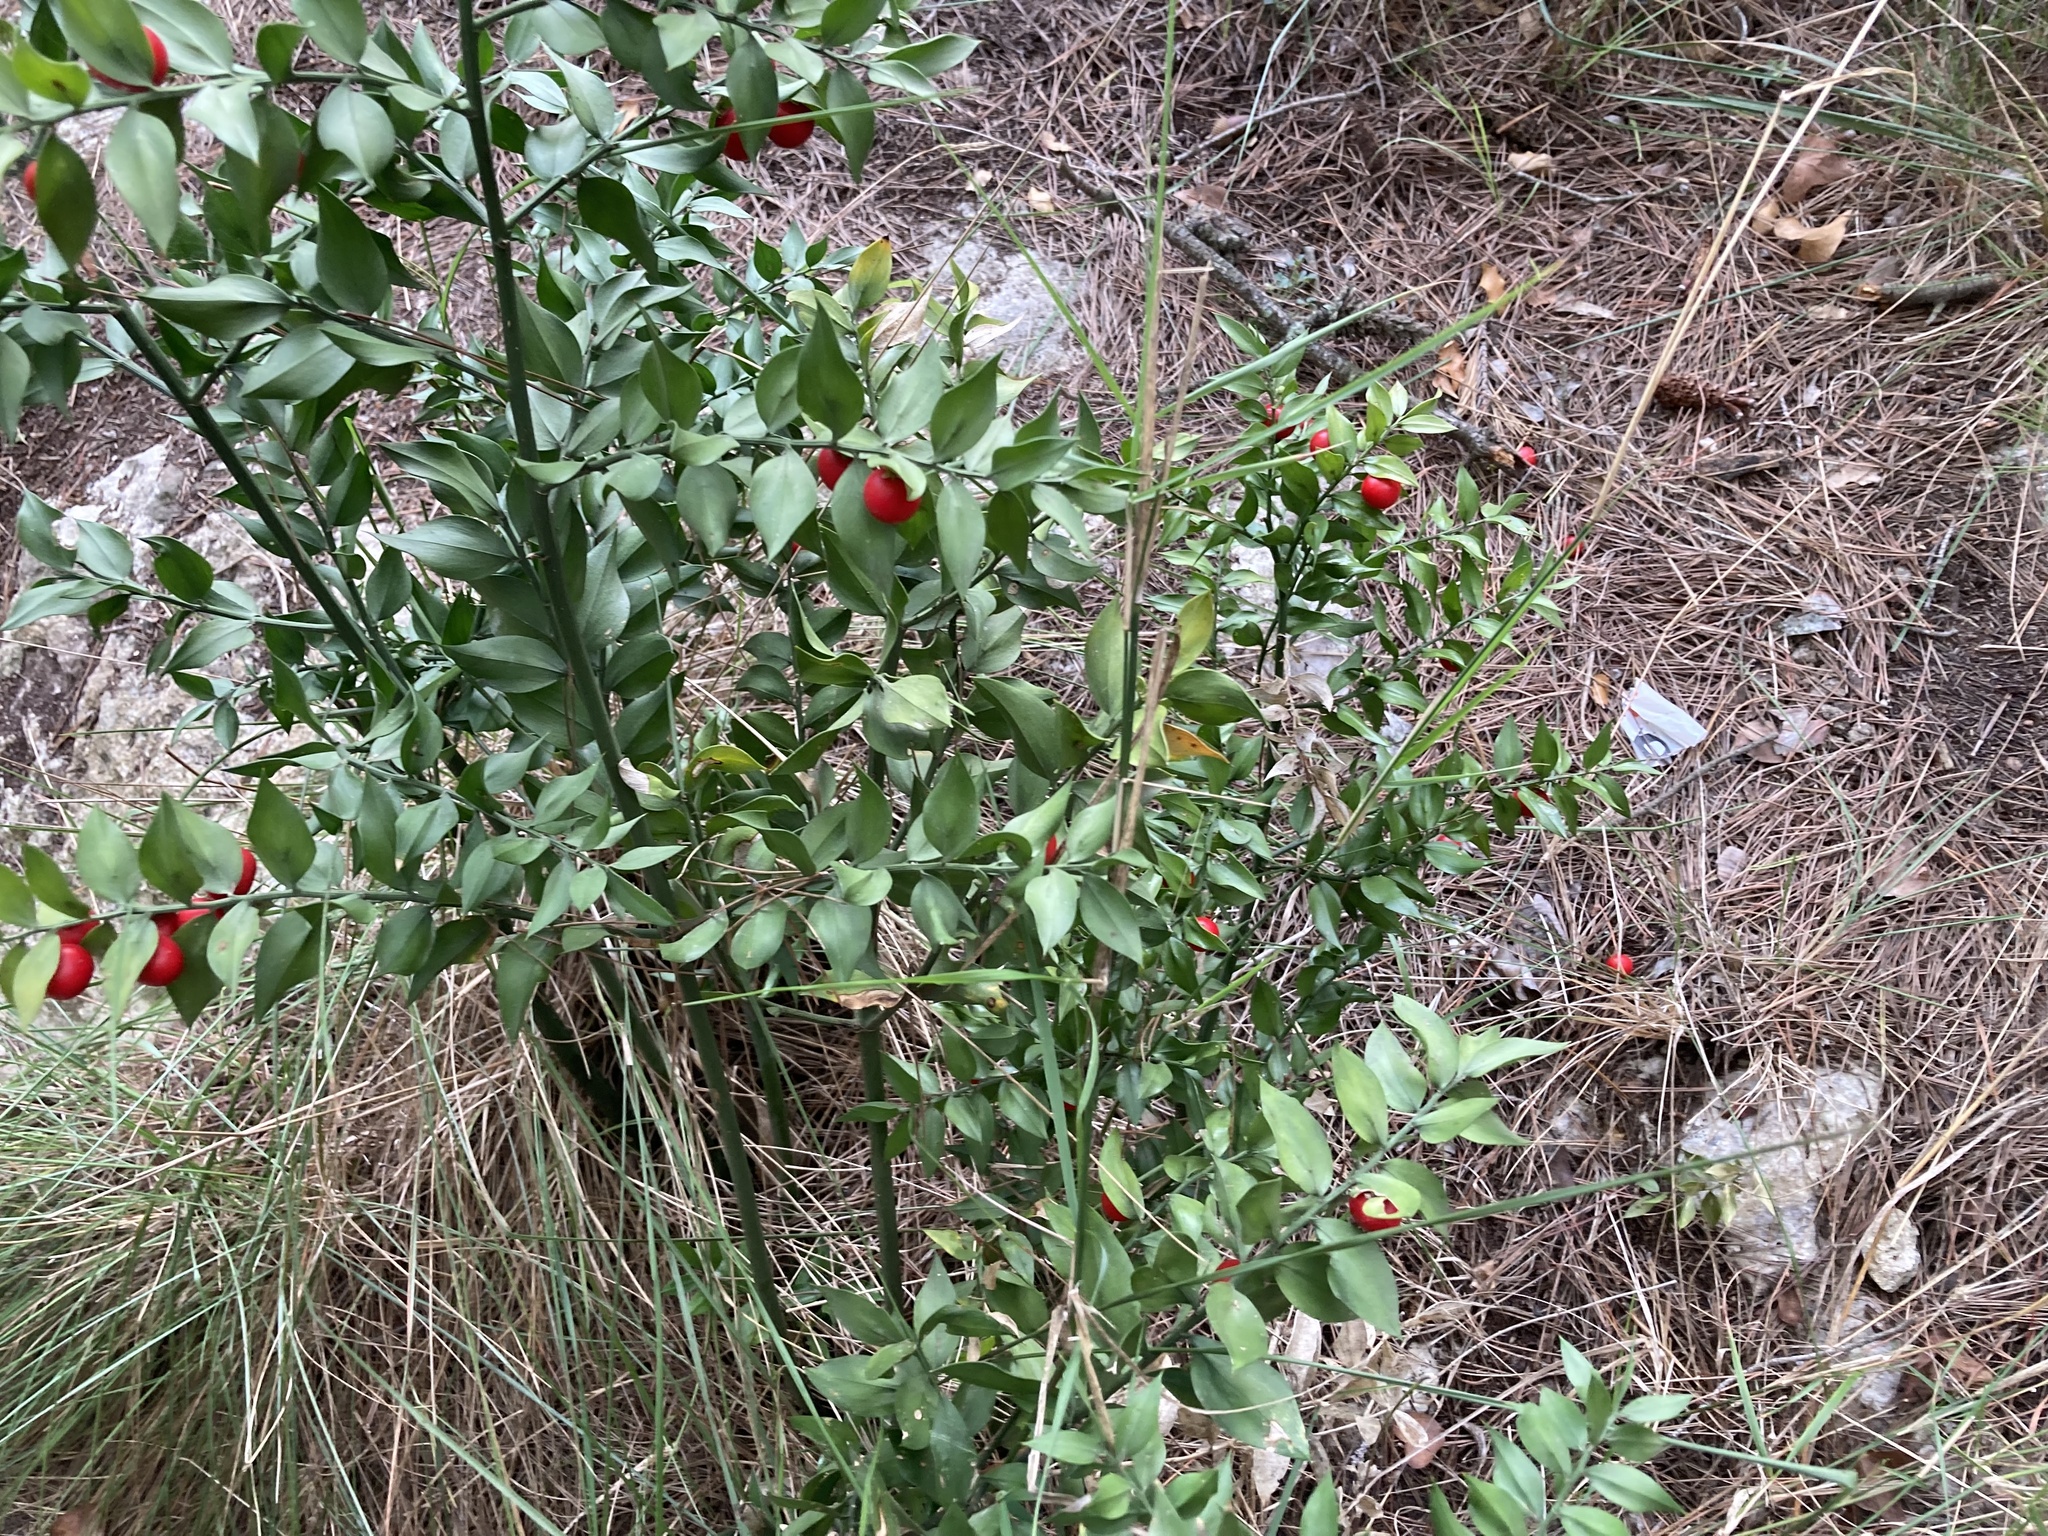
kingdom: Plantae
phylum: Tracheophyta
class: Liliopsida
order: Asparagales
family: Asparagaceae
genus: Ruscus
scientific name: Ruscus aculeatus
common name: Butcher's-broom
